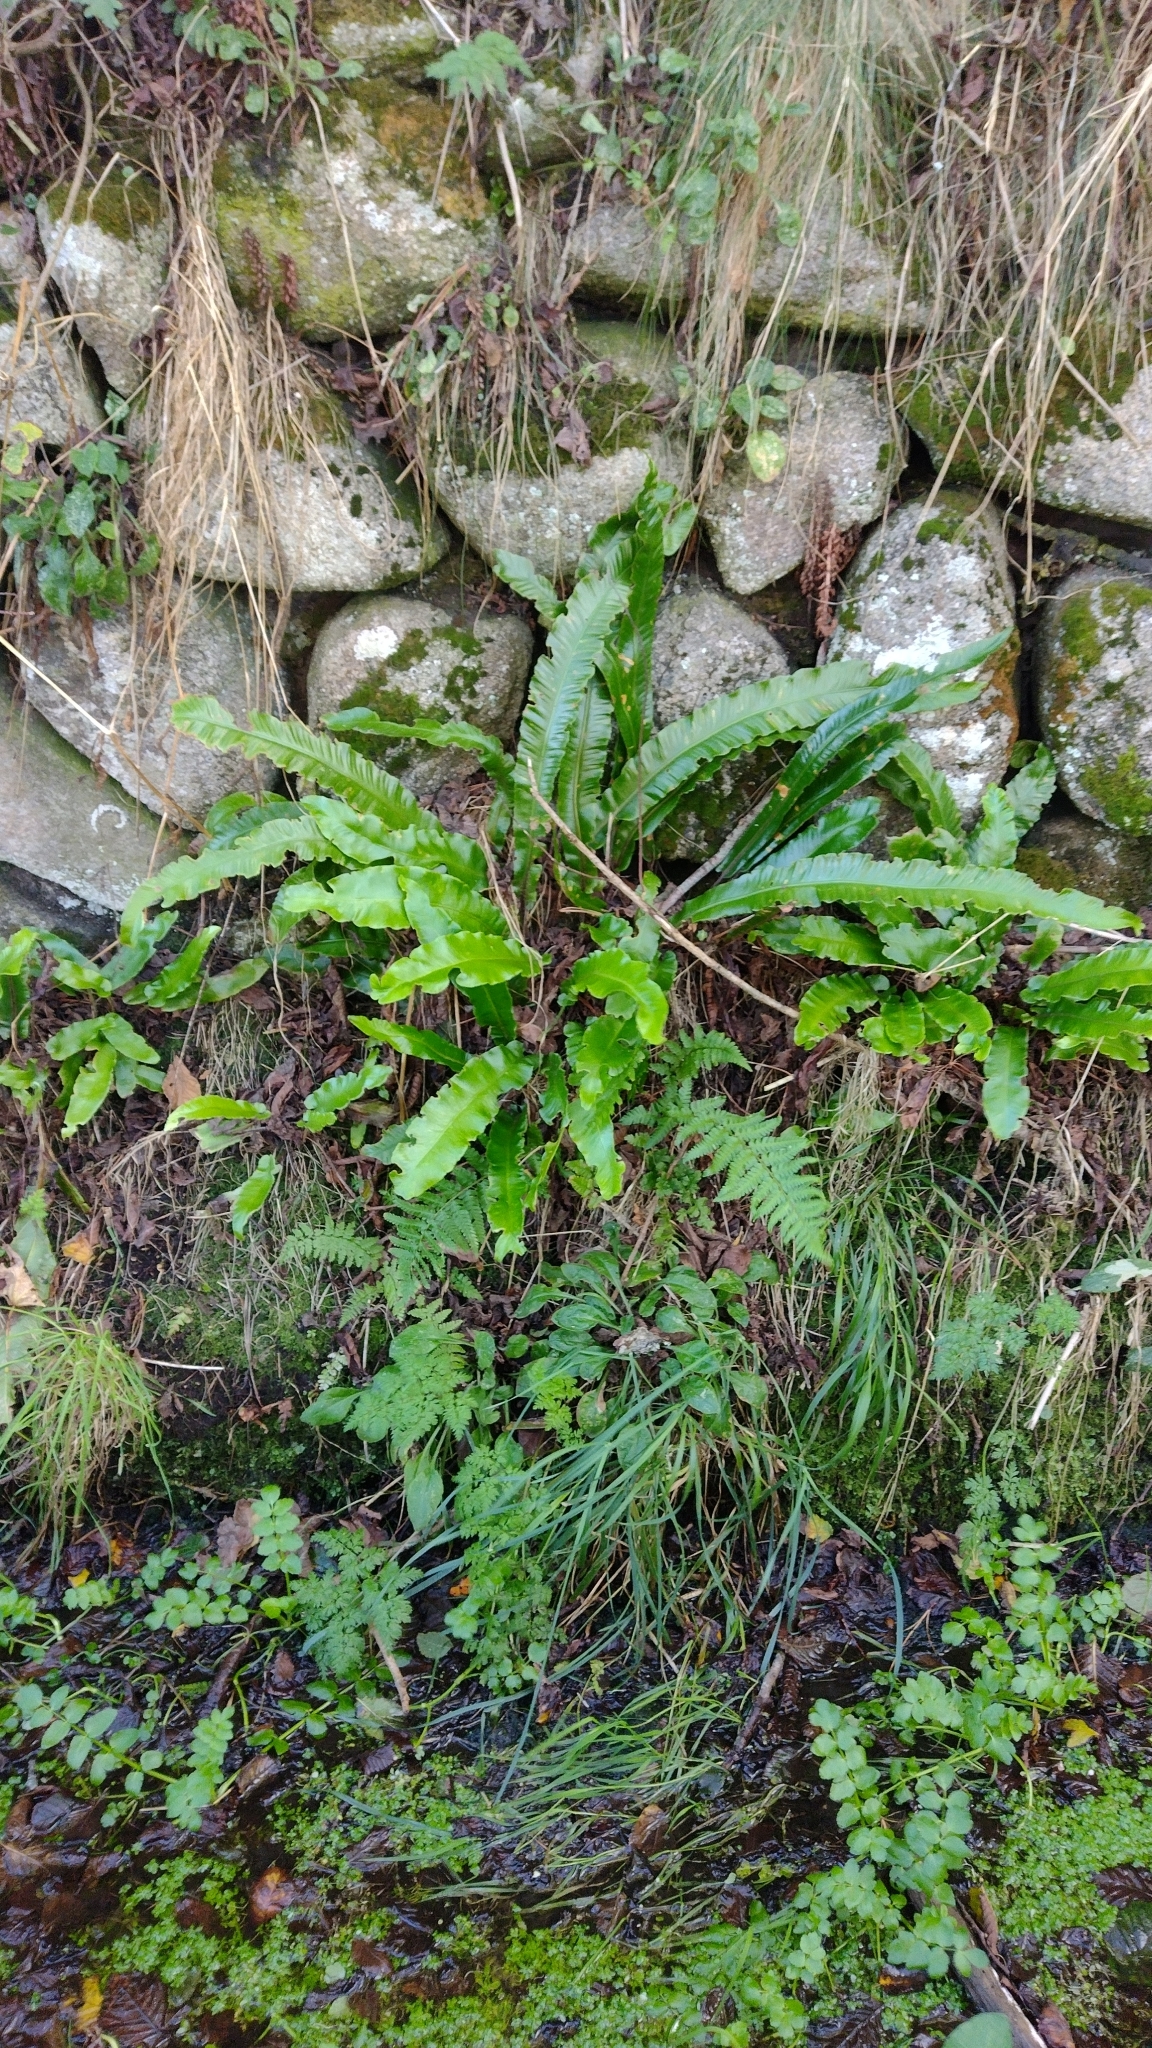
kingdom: Plantae
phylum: Tracheophyta
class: Polypodiopsida
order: Polypodiales
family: Aspleniaceae
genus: Asplenium
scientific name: Asplenium scolopendrium
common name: Hart's-tongue fern
